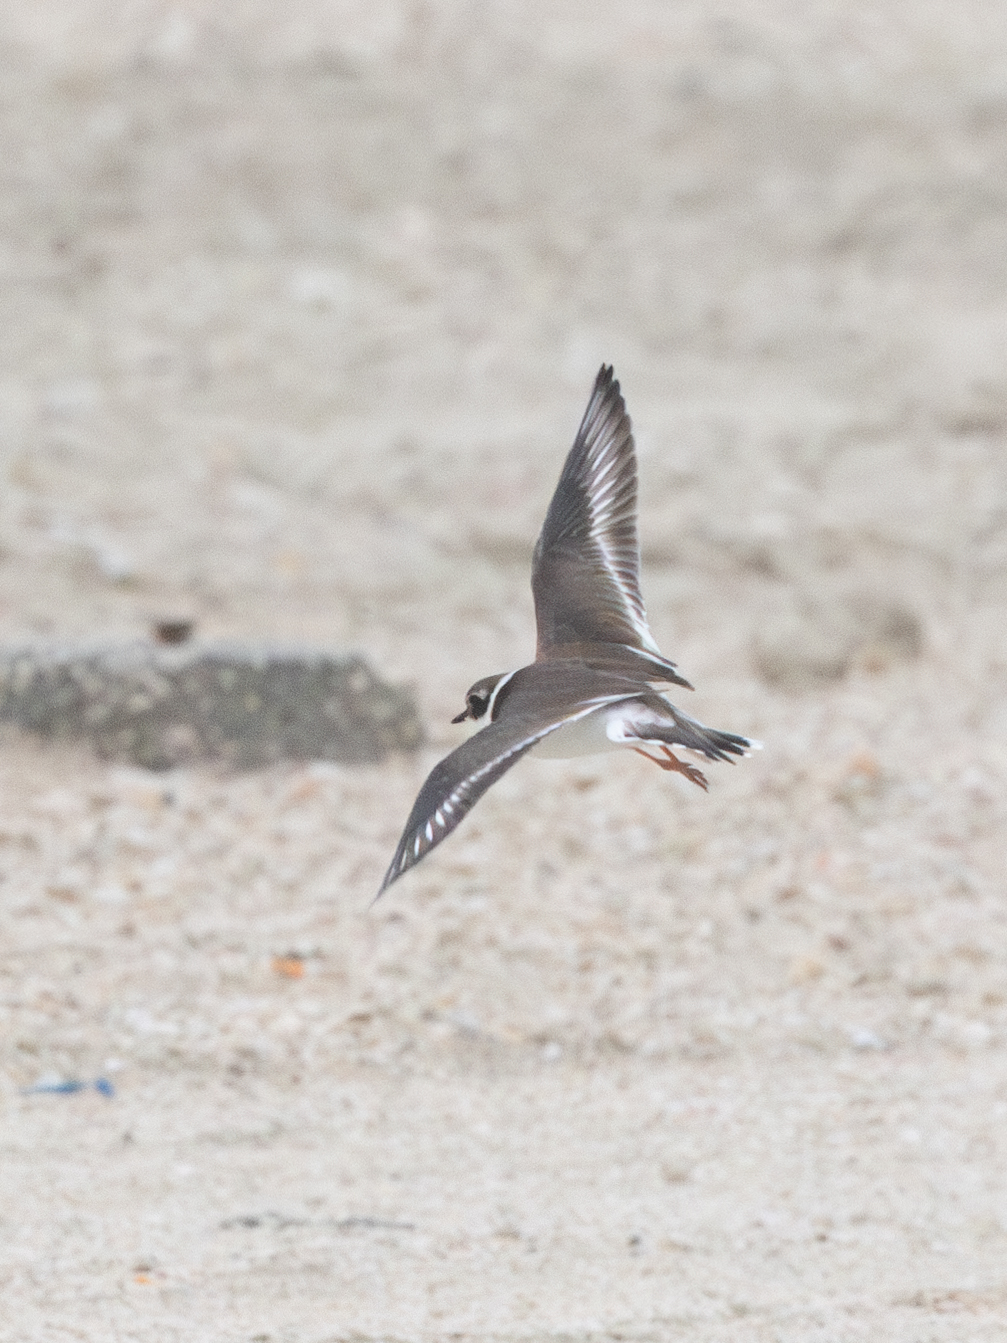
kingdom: Animalia
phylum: Chordata
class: Aves
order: Charadriiformes
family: Charadriidae
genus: Charadrius
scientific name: Charadrius hiaticula
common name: Common ringed plover
